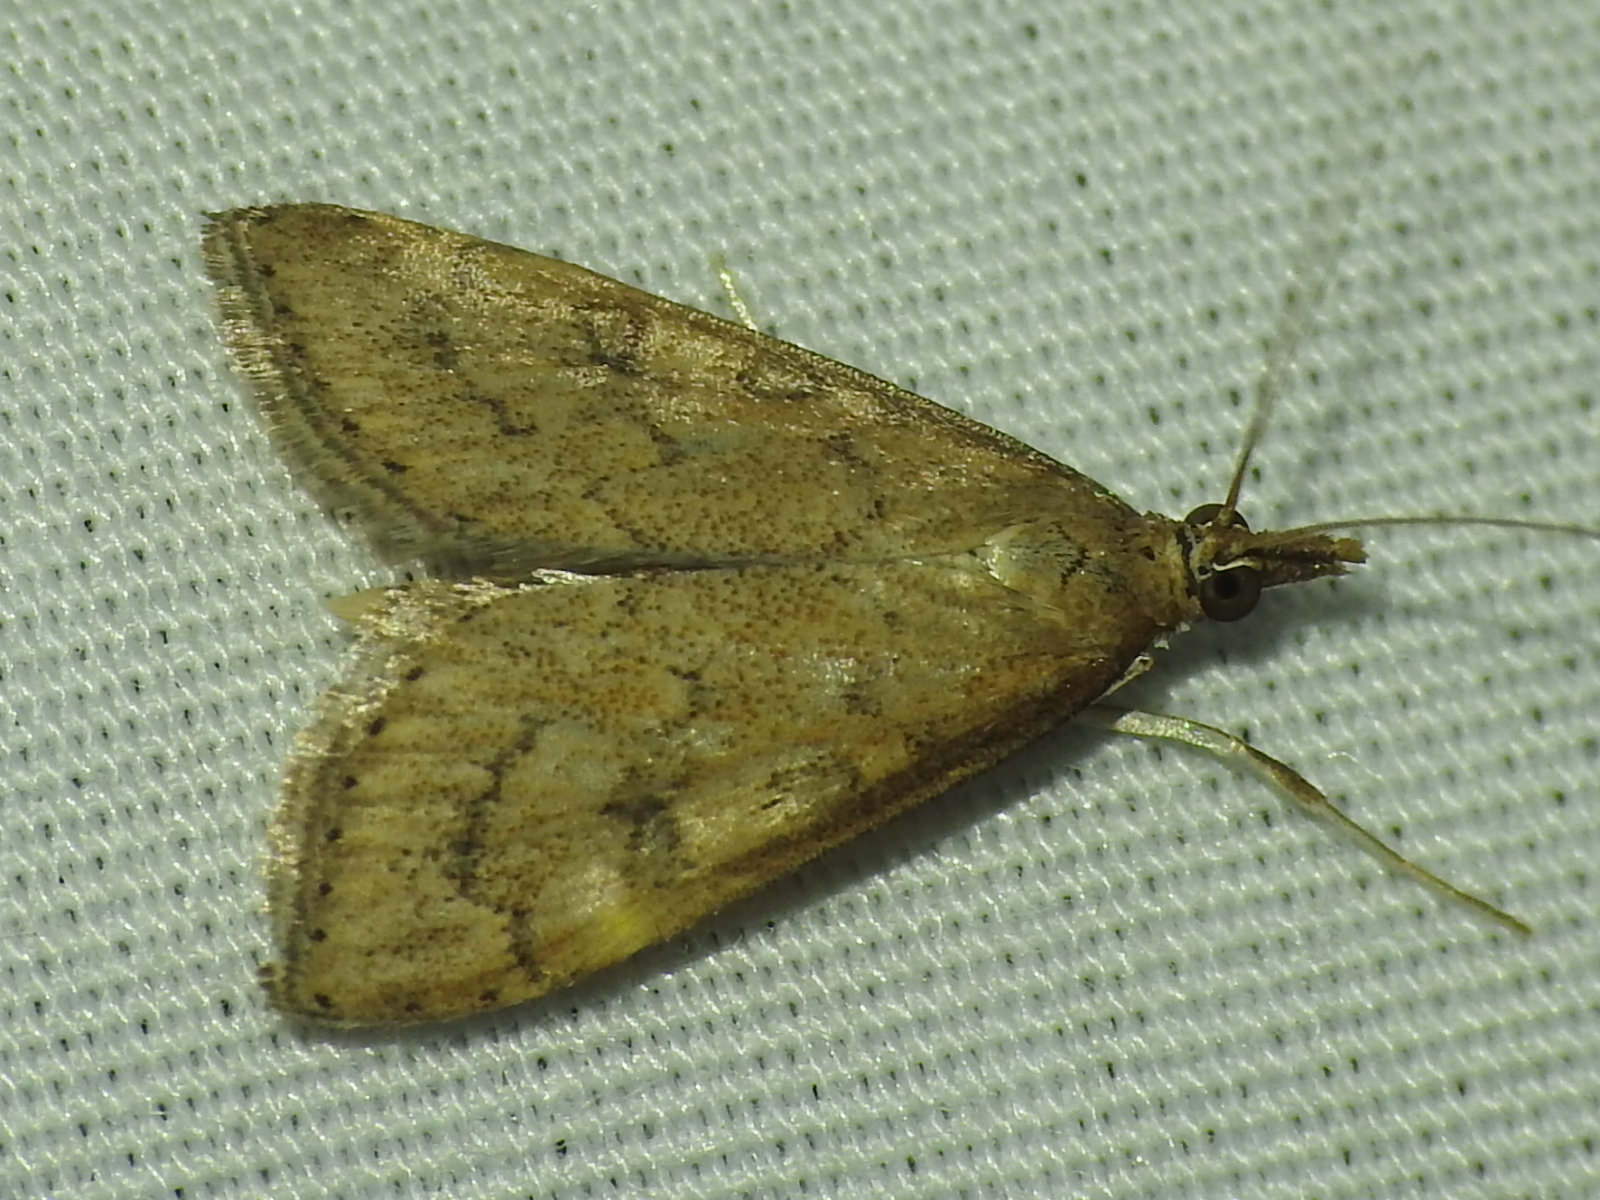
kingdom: Animalia
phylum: Arthropoda
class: Insecta
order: Lepidoptera
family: Crambidae
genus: Udea
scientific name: Udea rubigalis
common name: Celery leaftier moth
